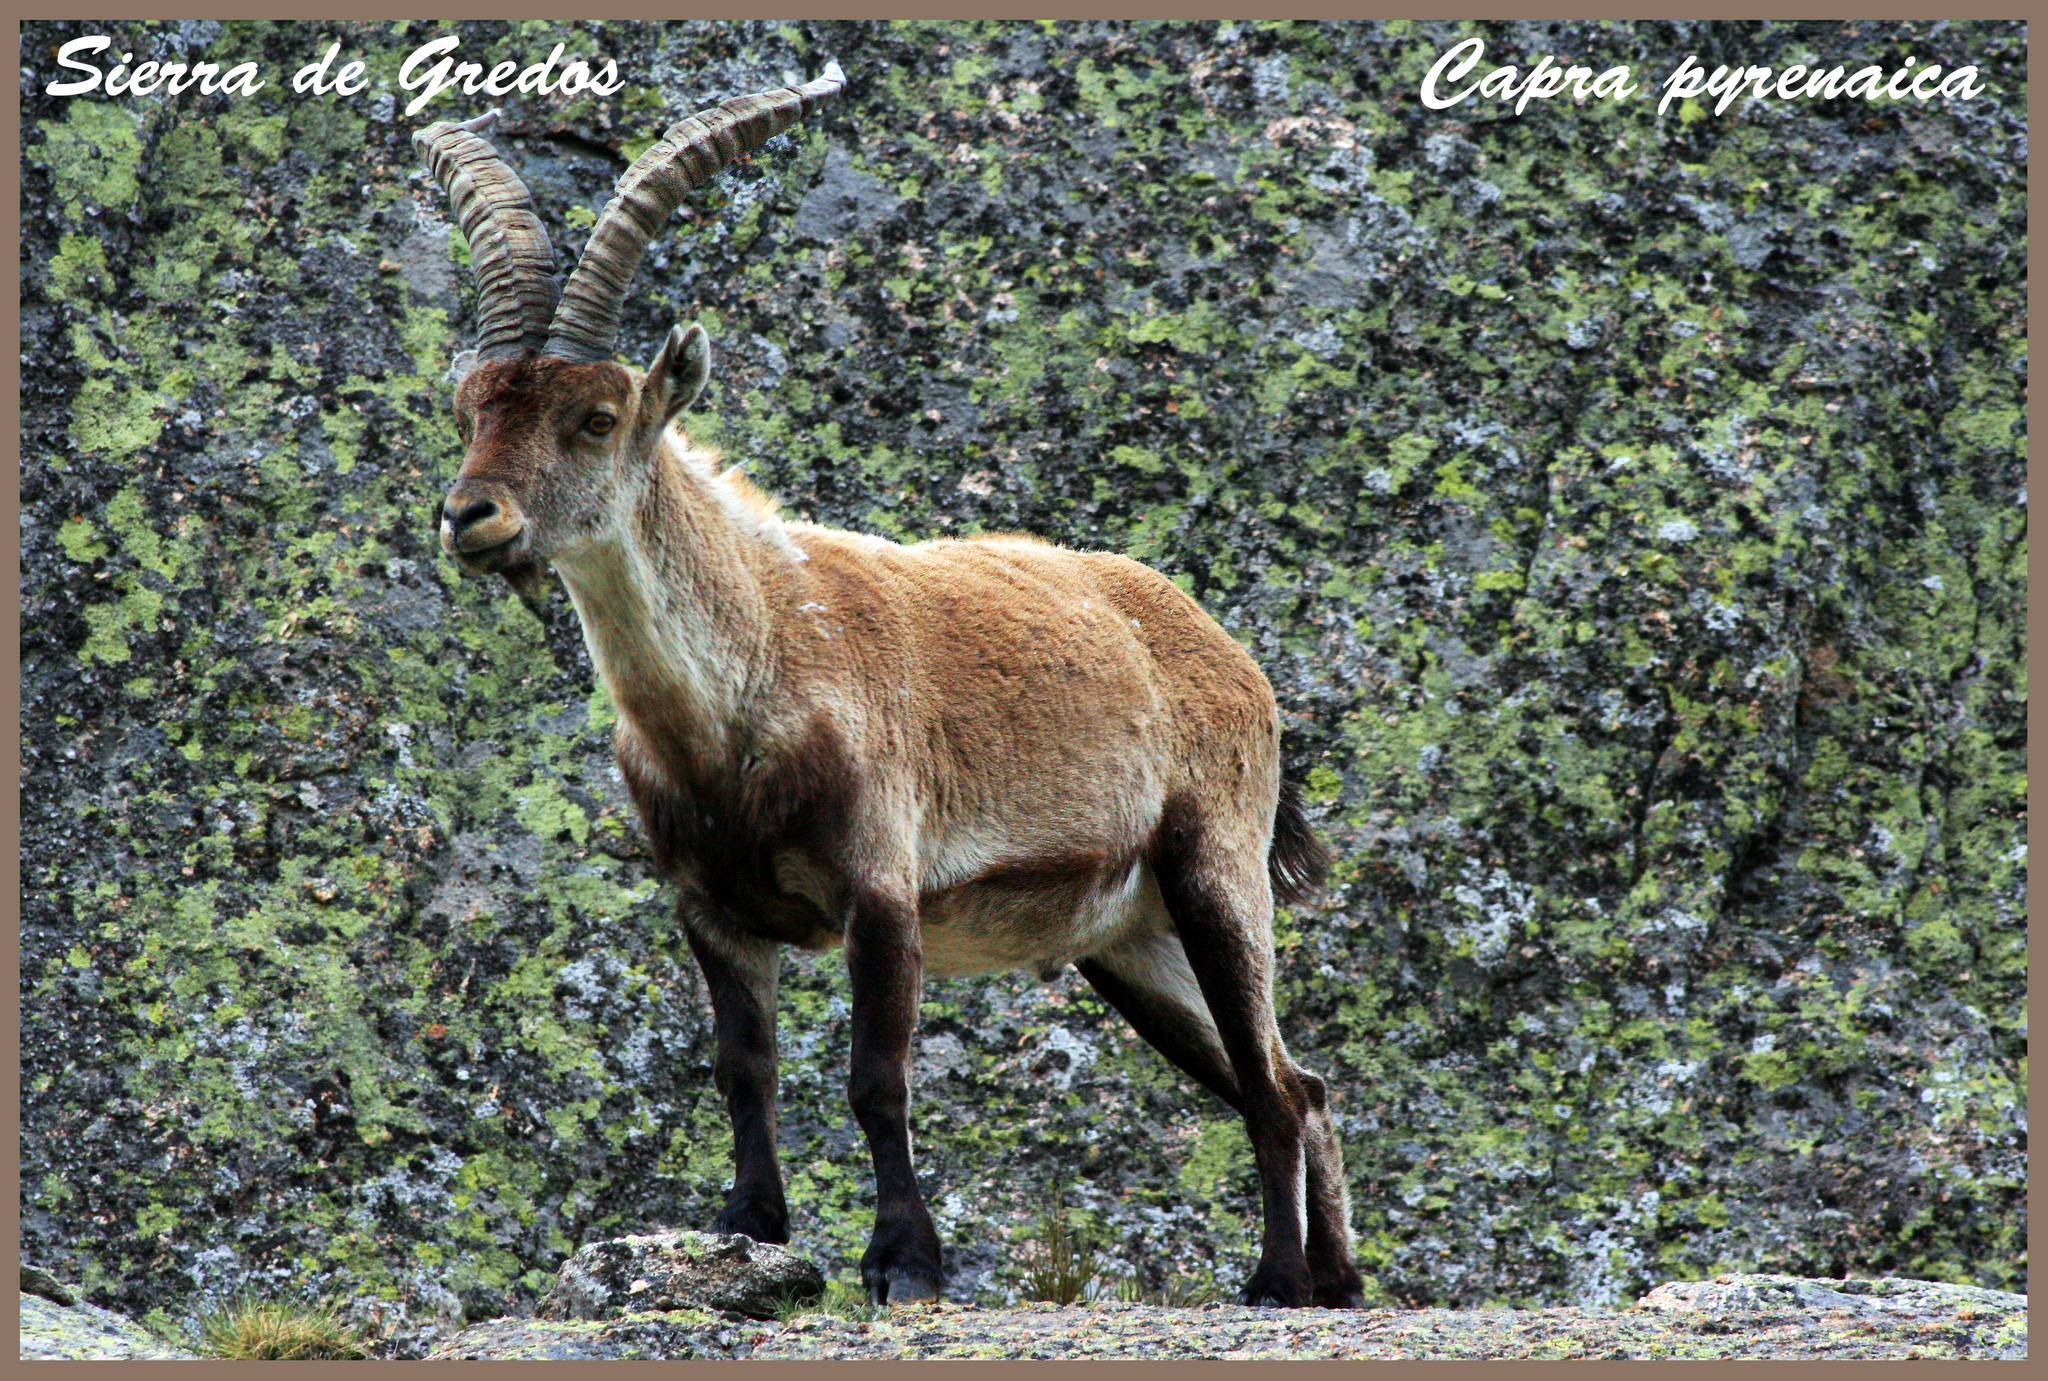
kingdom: Animalia
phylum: Chordata
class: Mammalia
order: Artiodactyla
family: Bovidae
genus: Capra
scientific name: Capra pyrenaica
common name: Spanish ibex
